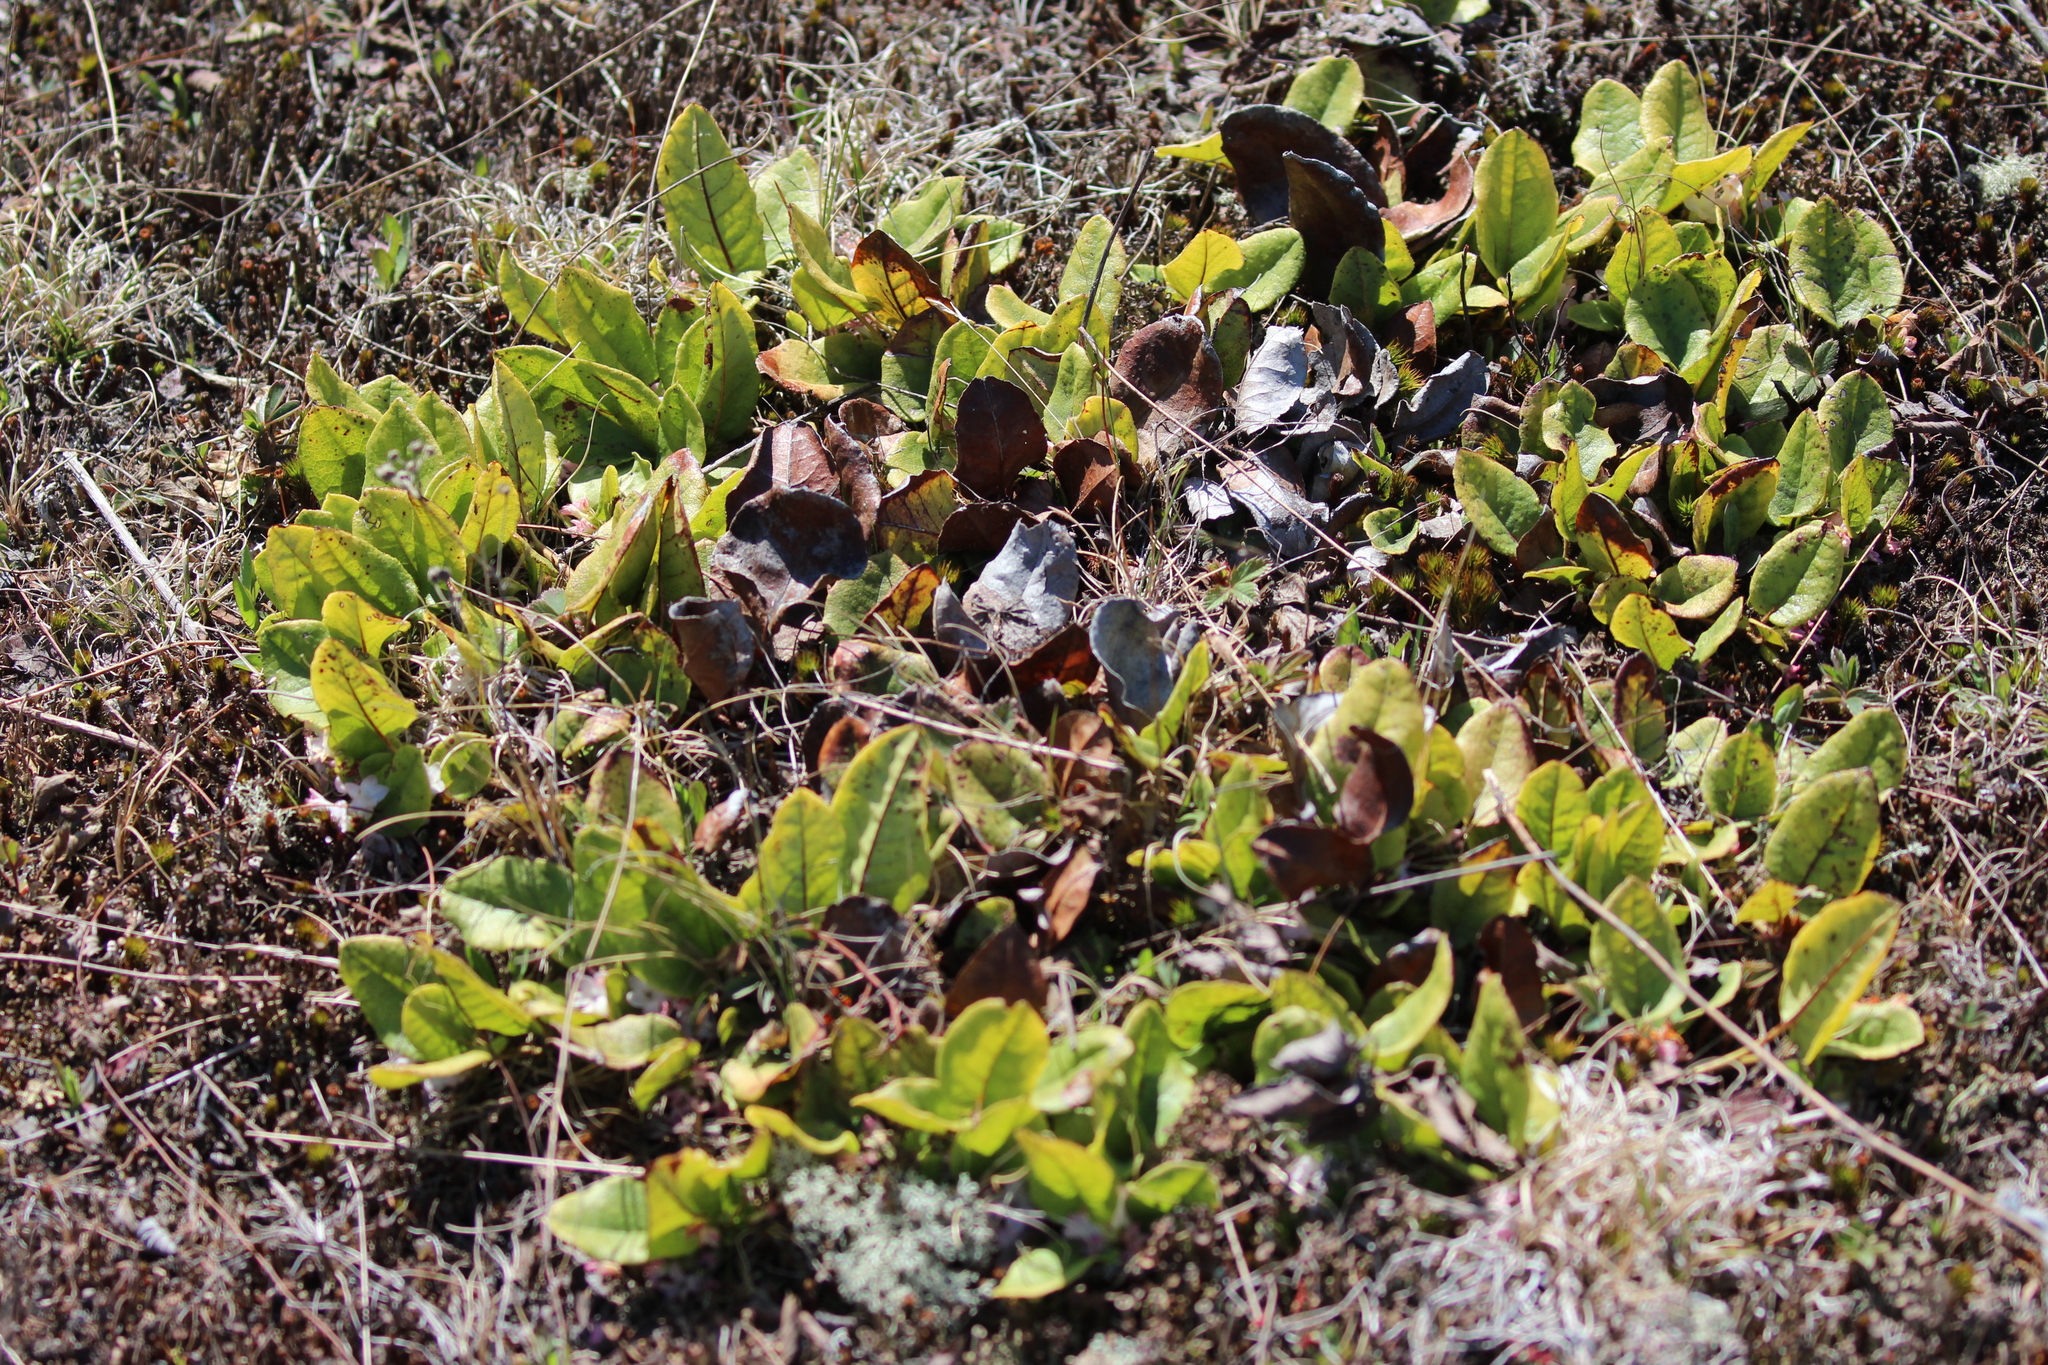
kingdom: Plantae
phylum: Tracheophyta
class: Magnoliopsida
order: Ericales
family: Ericaceae
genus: Epigaea
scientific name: Epigaea repens
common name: Gravelroot
